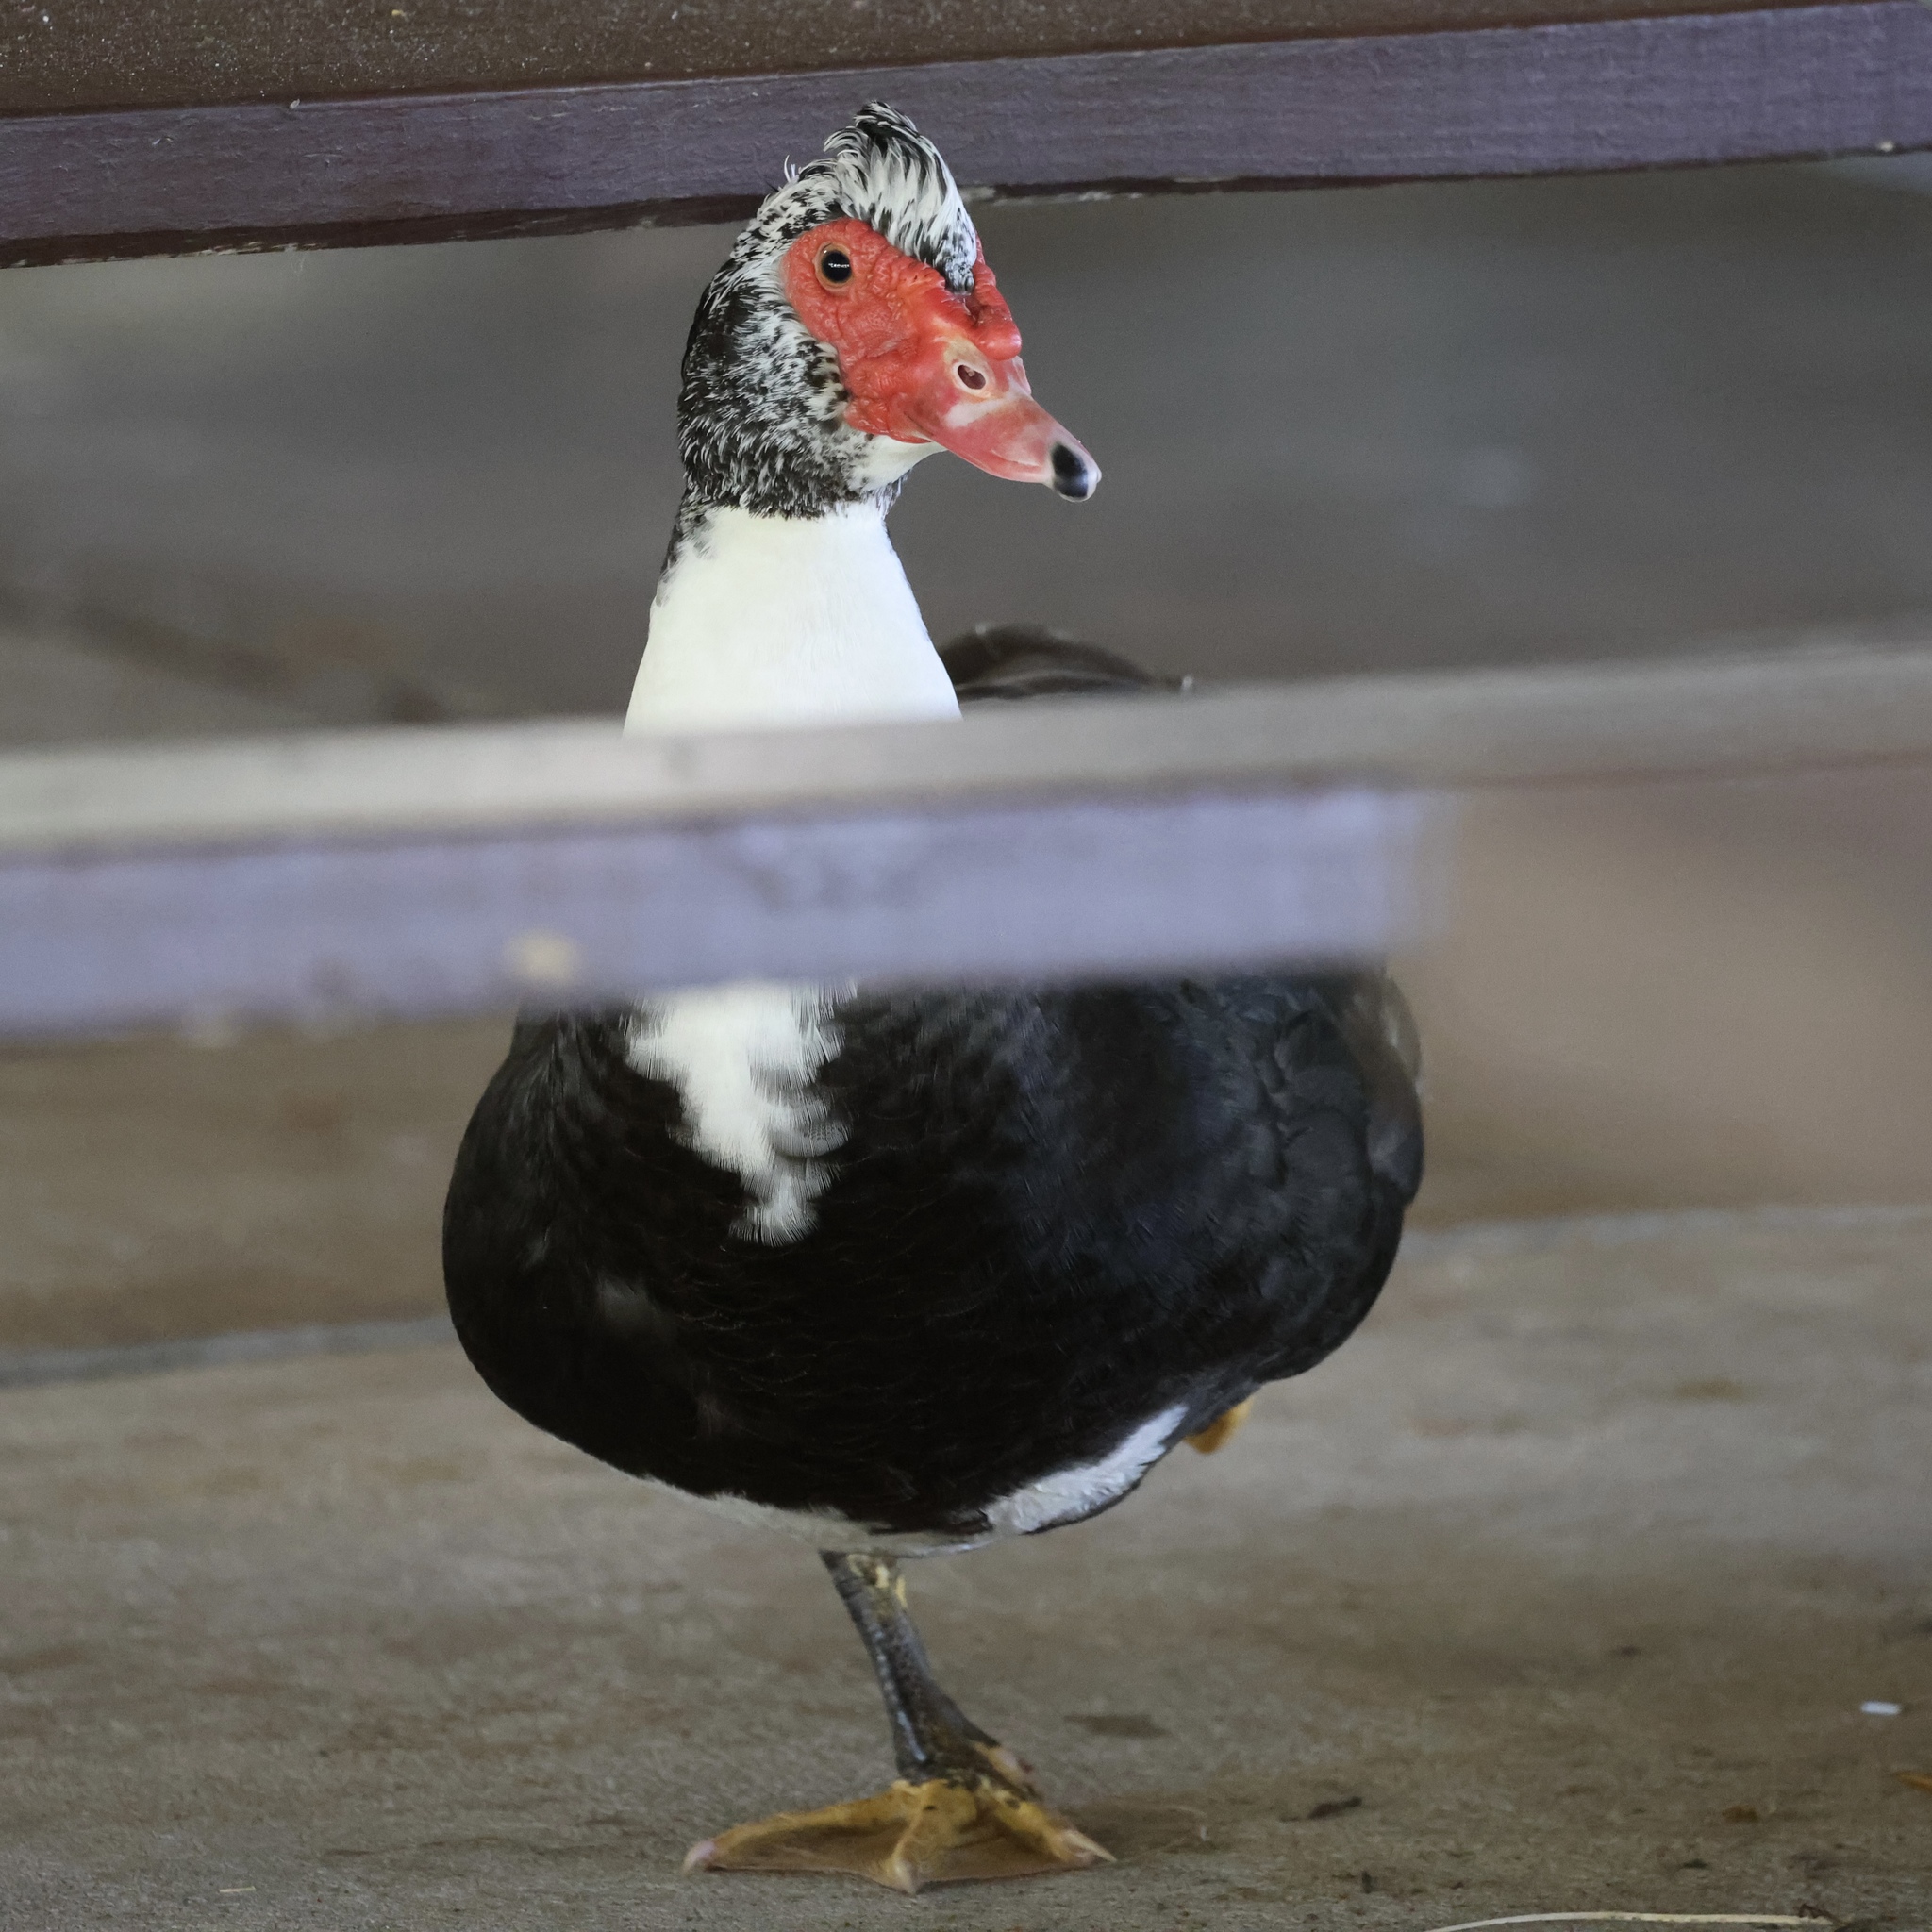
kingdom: Animalia
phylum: Chordata
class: Aves
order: Anseriformes
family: Anatidae
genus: Cairina
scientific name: Cairina moschata
